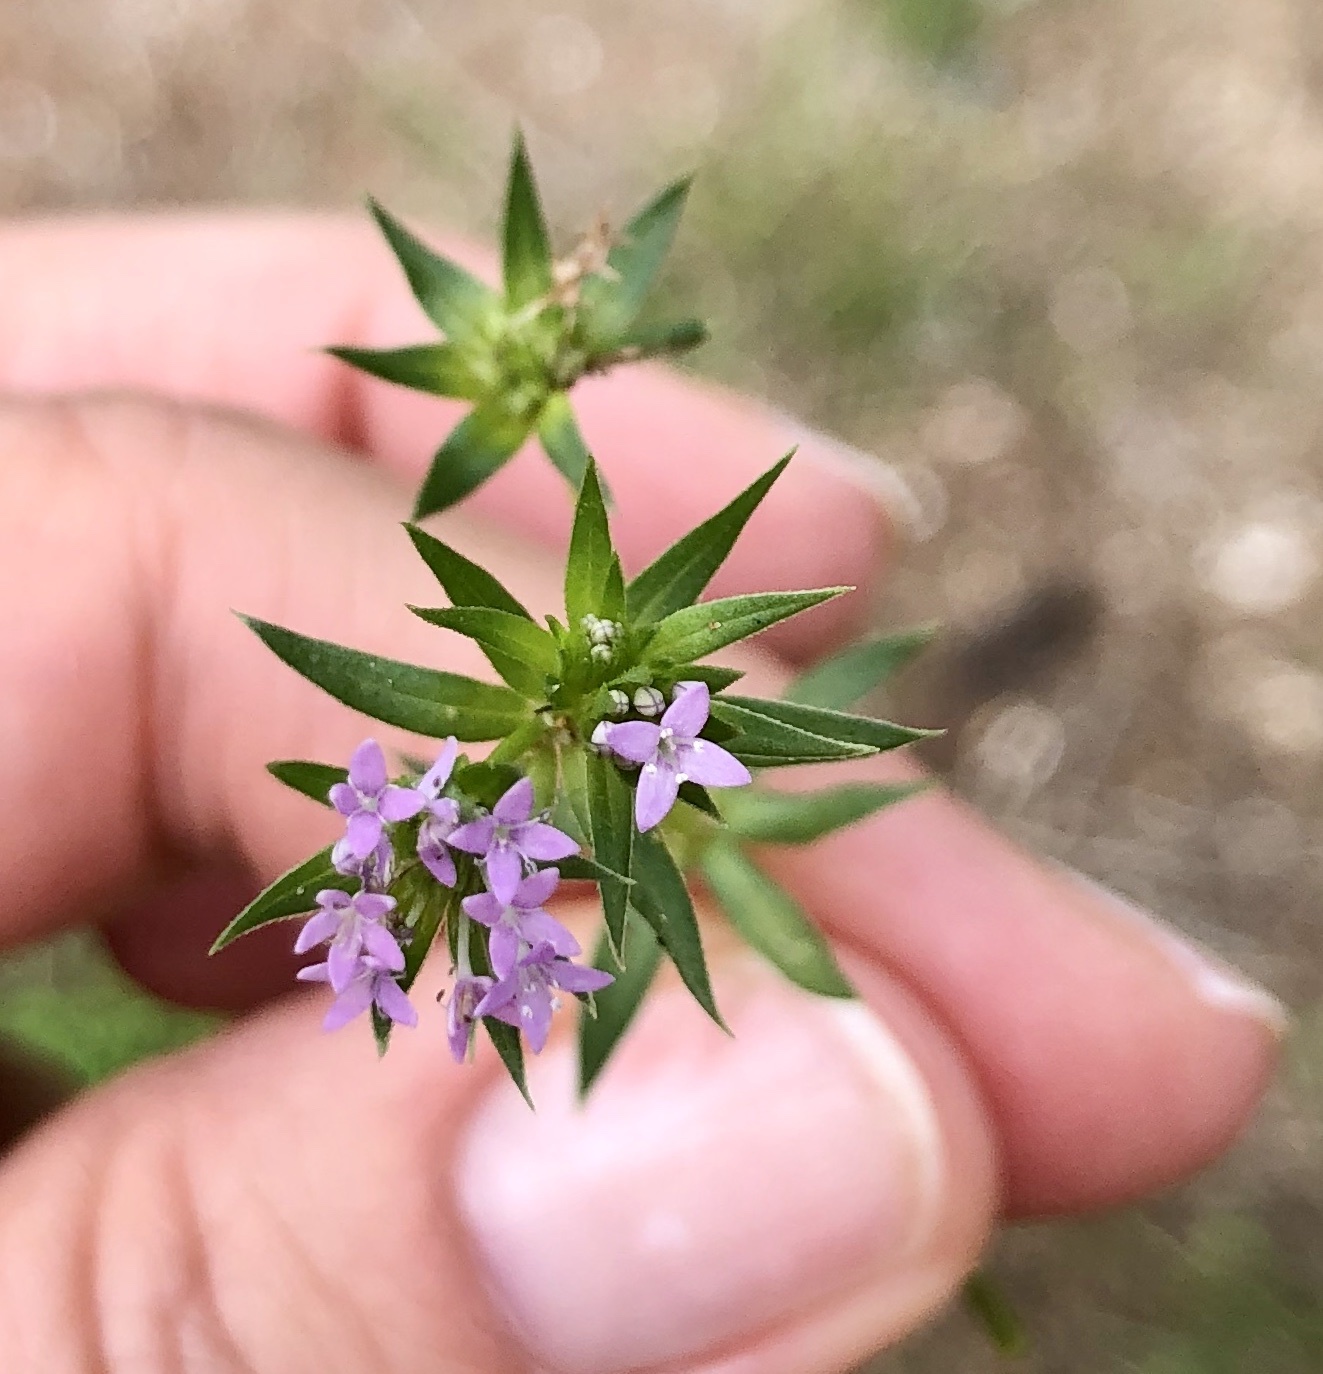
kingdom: Plantae
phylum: Tracheophyta
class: Magnoliopsida
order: Gentianales
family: Rubiaceae
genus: Sherardia
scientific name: Sherardia arvensis
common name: Field madder
